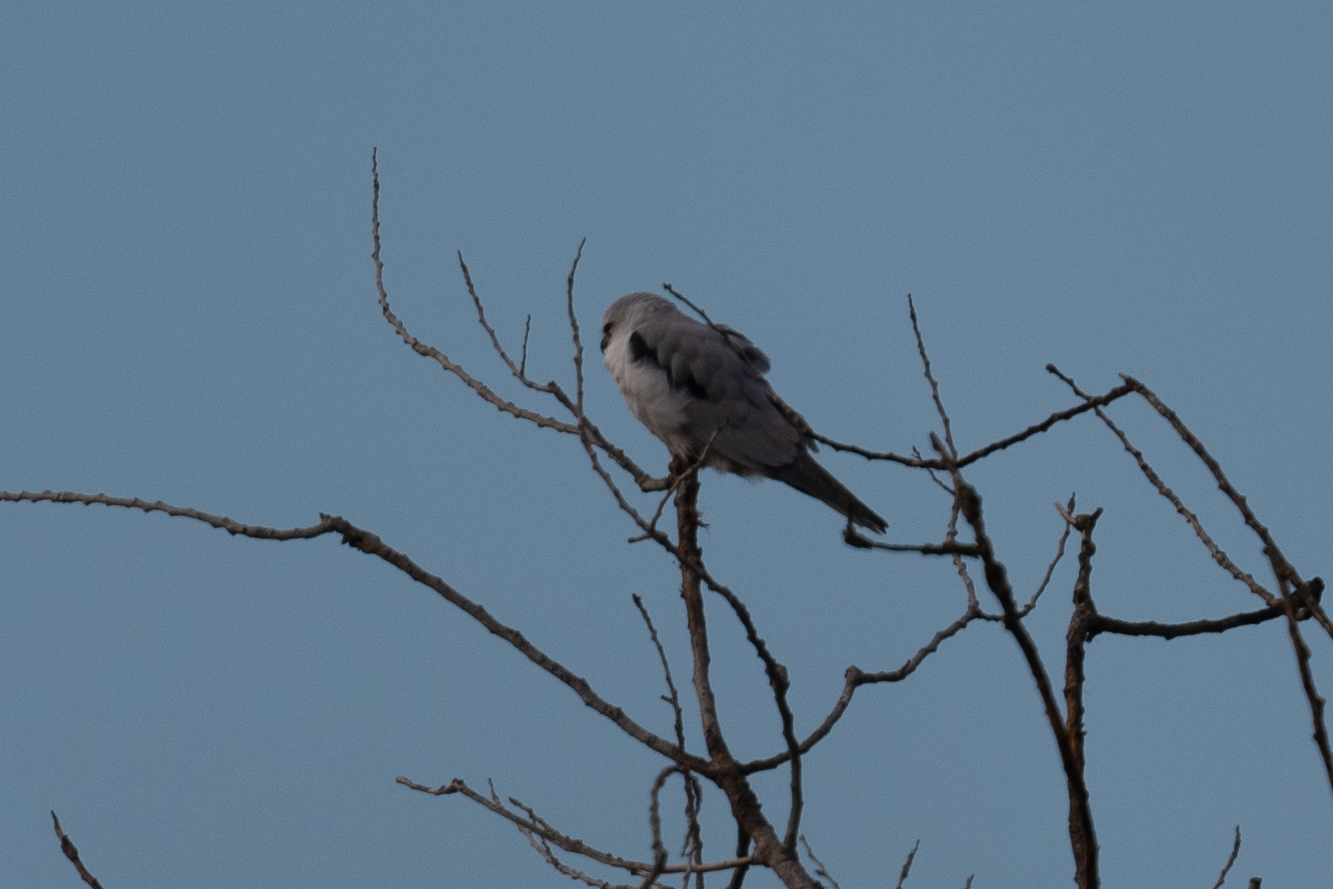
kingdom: Animalia
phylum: Chordata
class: Aves
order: Accipitriformes
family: Accipitridae
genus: Elanus
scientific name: Elanus leucurus
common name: White-tailed kite
